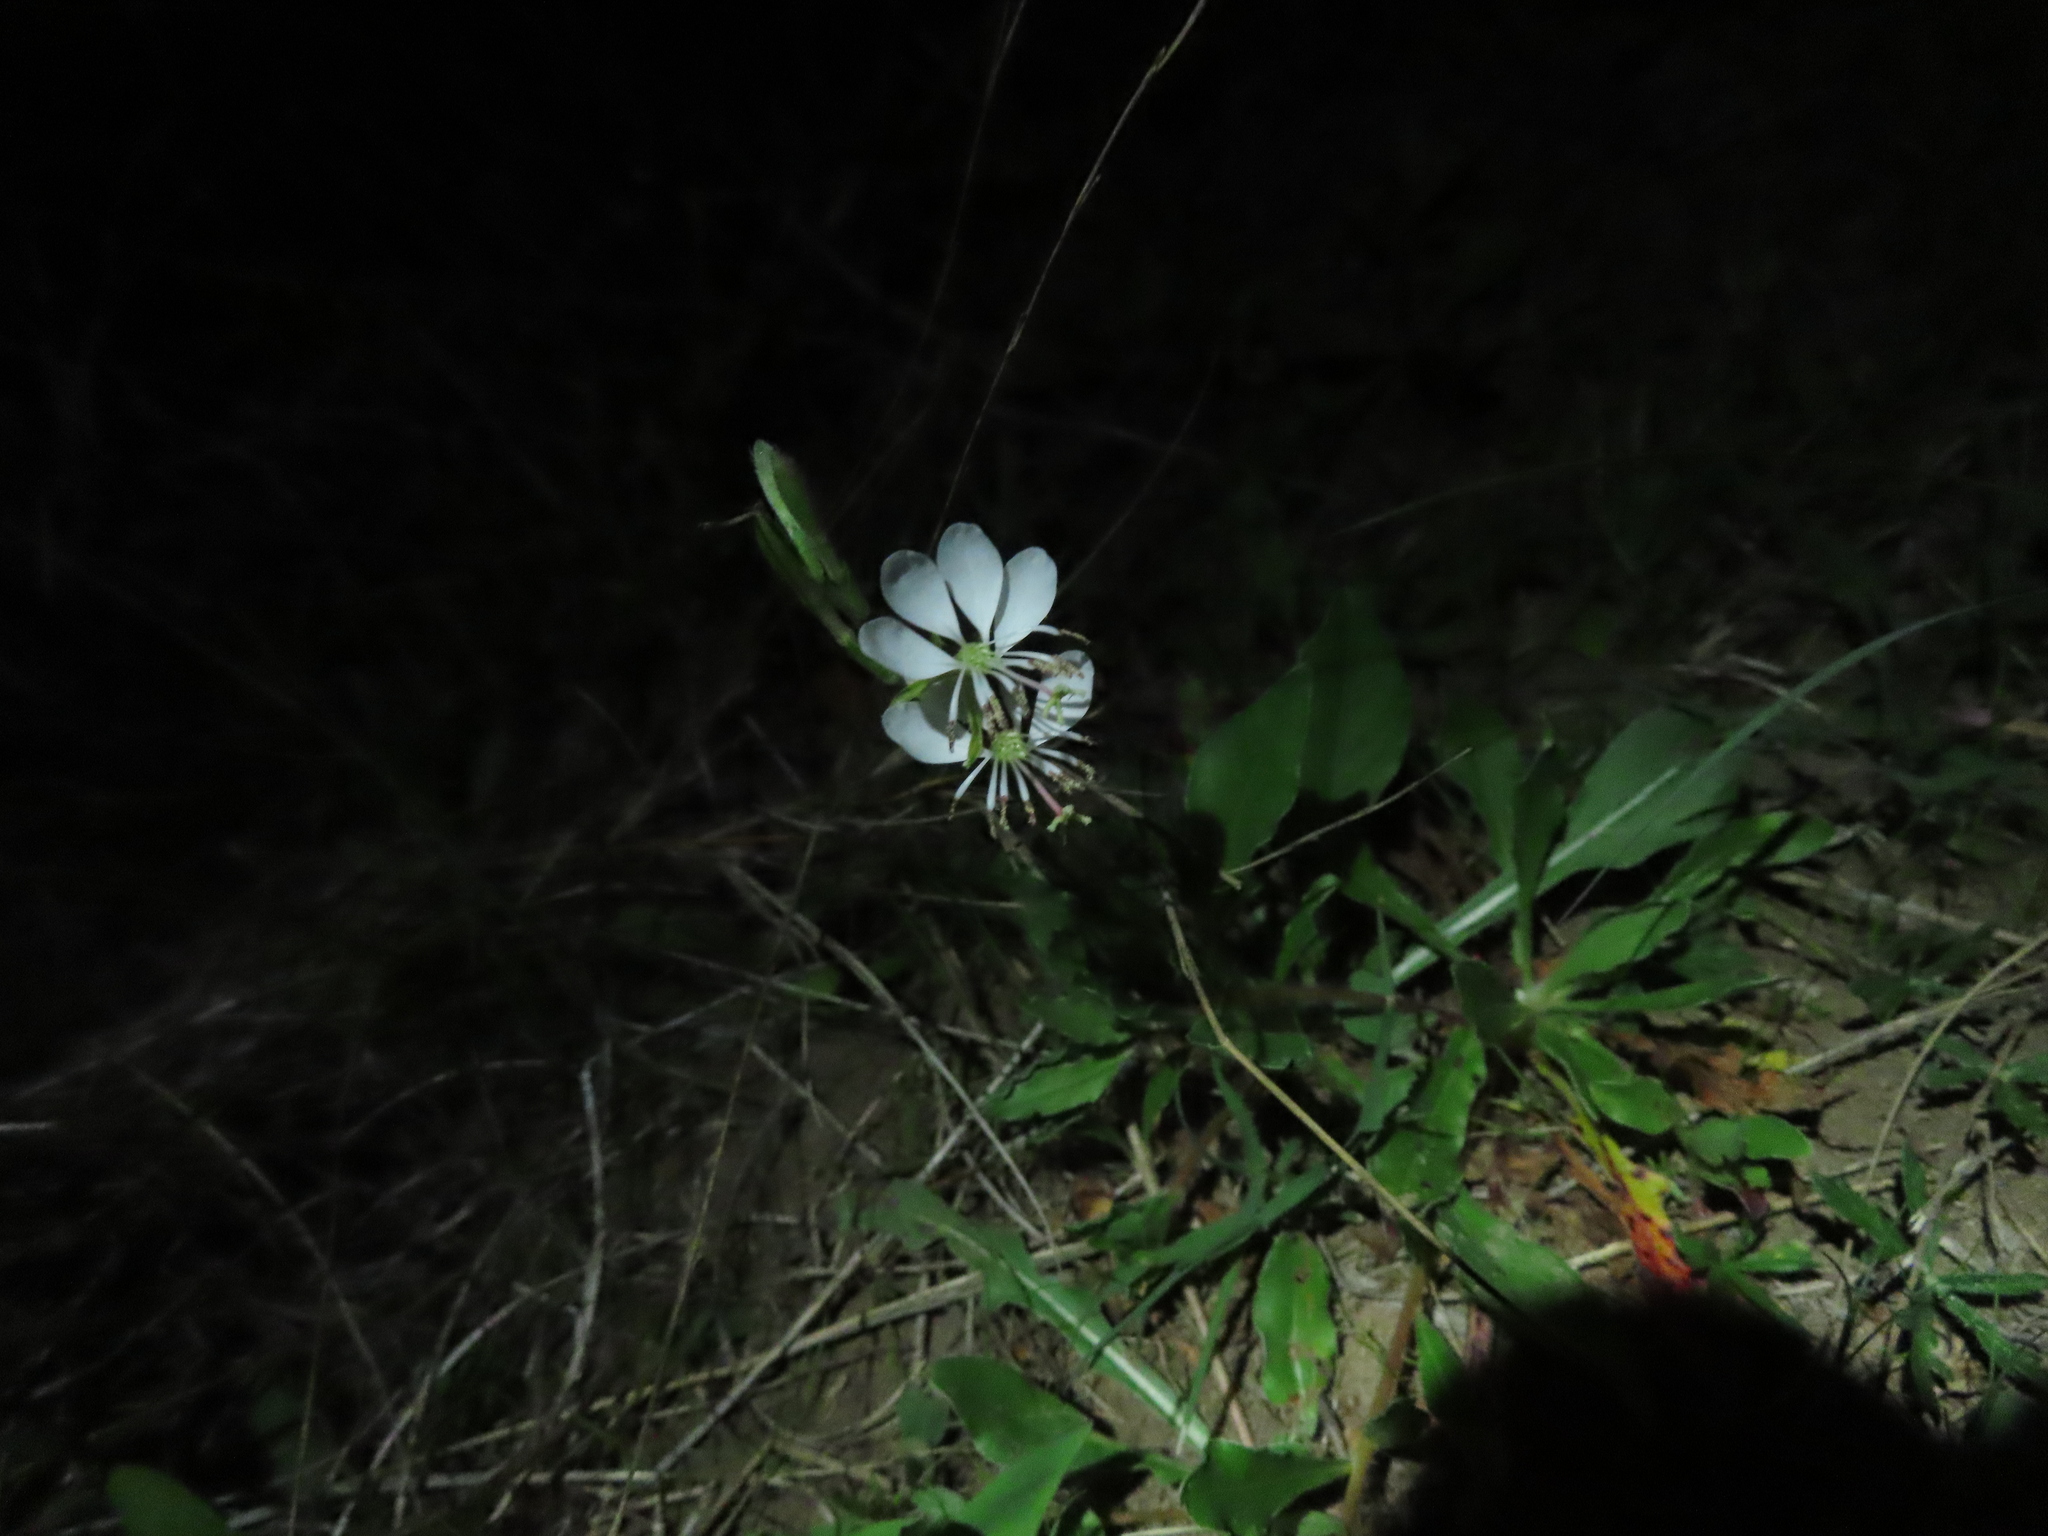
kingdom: Plantae
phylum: Tracheophyta
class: Magnoliopsida
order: Myrtales
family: Onagraceae
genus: Oenothera
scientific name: Oenothera suffulta
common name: Kisses
